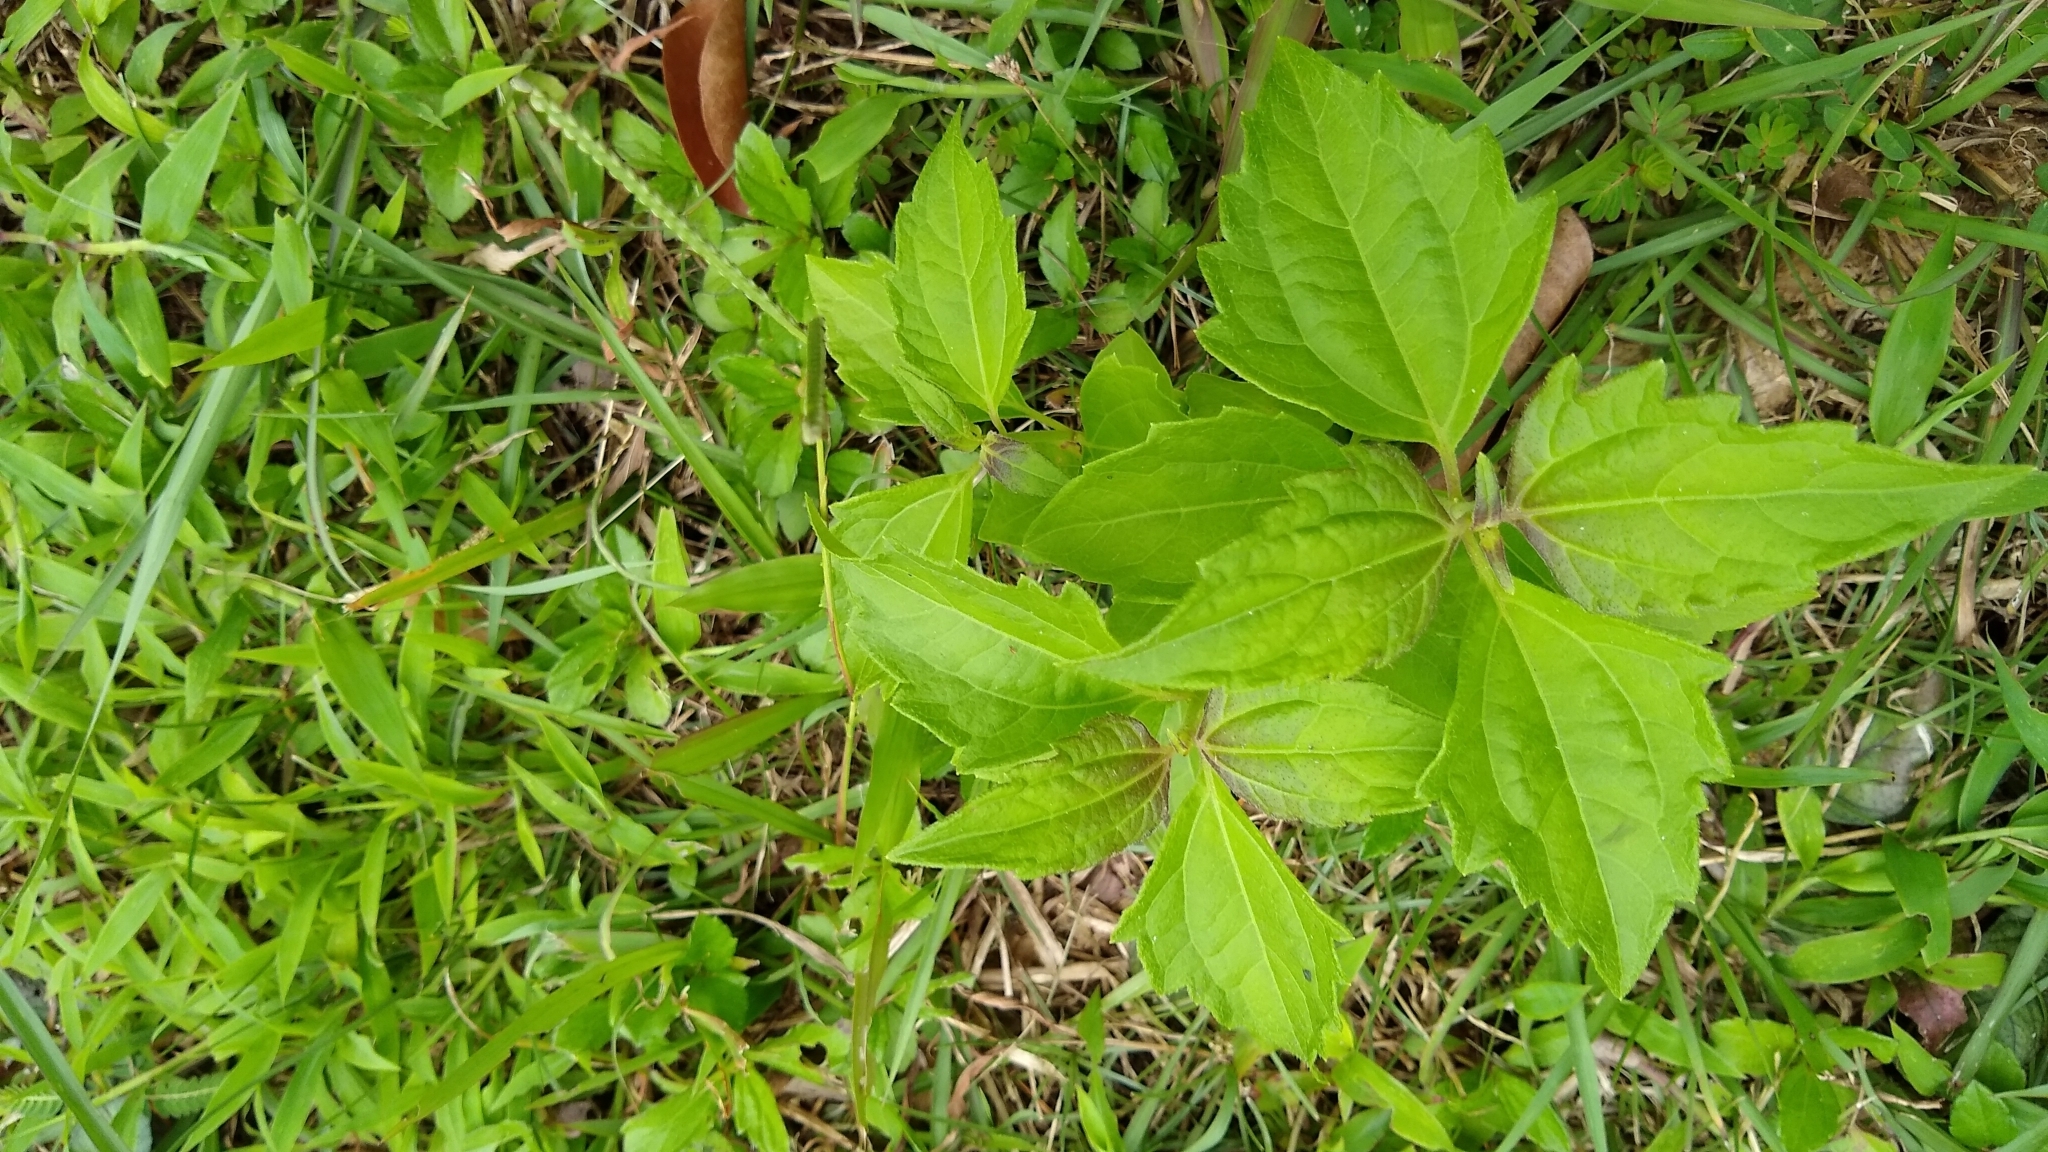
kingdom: Plantae
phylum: Tracheophyta
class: Magnoliopsida
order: Asterales
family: Asteraceae
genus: Chromolaena
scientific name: Chromolaena odorata
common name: Siamweed
